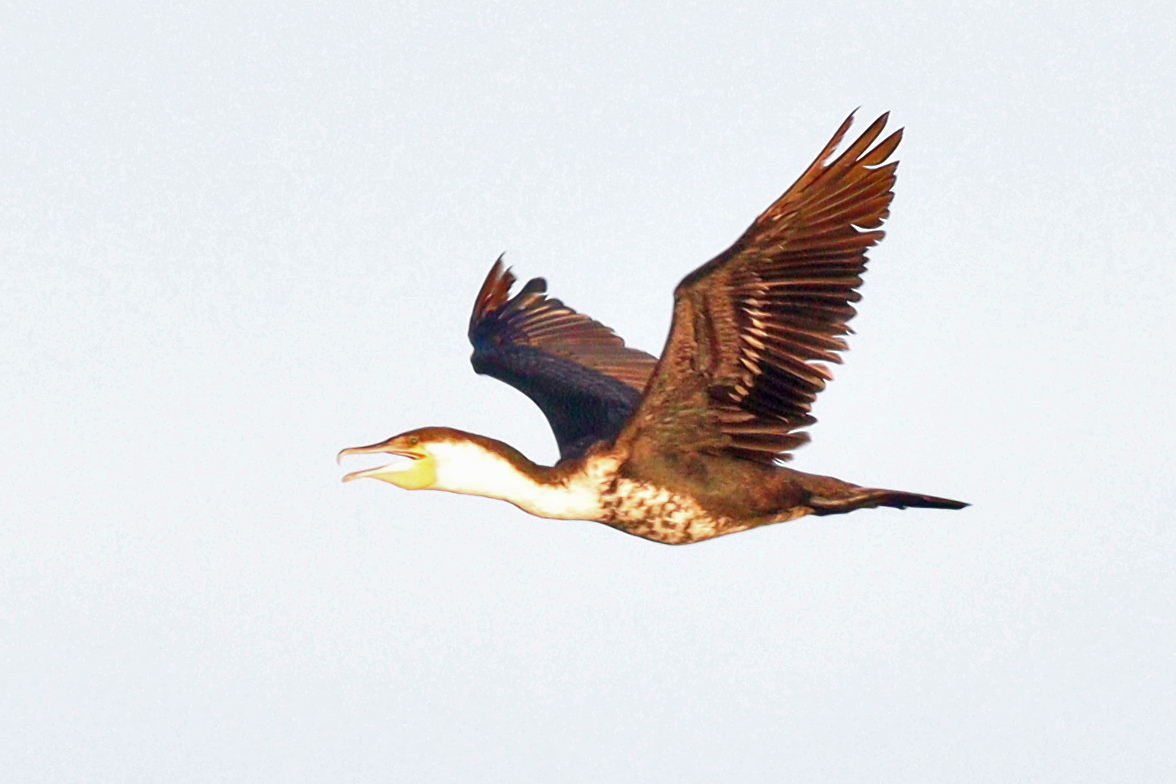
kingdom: Animalia
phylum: Chordata
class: Aves
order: Suliformes
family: Phalacrocoracidae
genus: Phalacrocorax
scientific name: Phalacrocorax carbo
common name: Great cormorant
